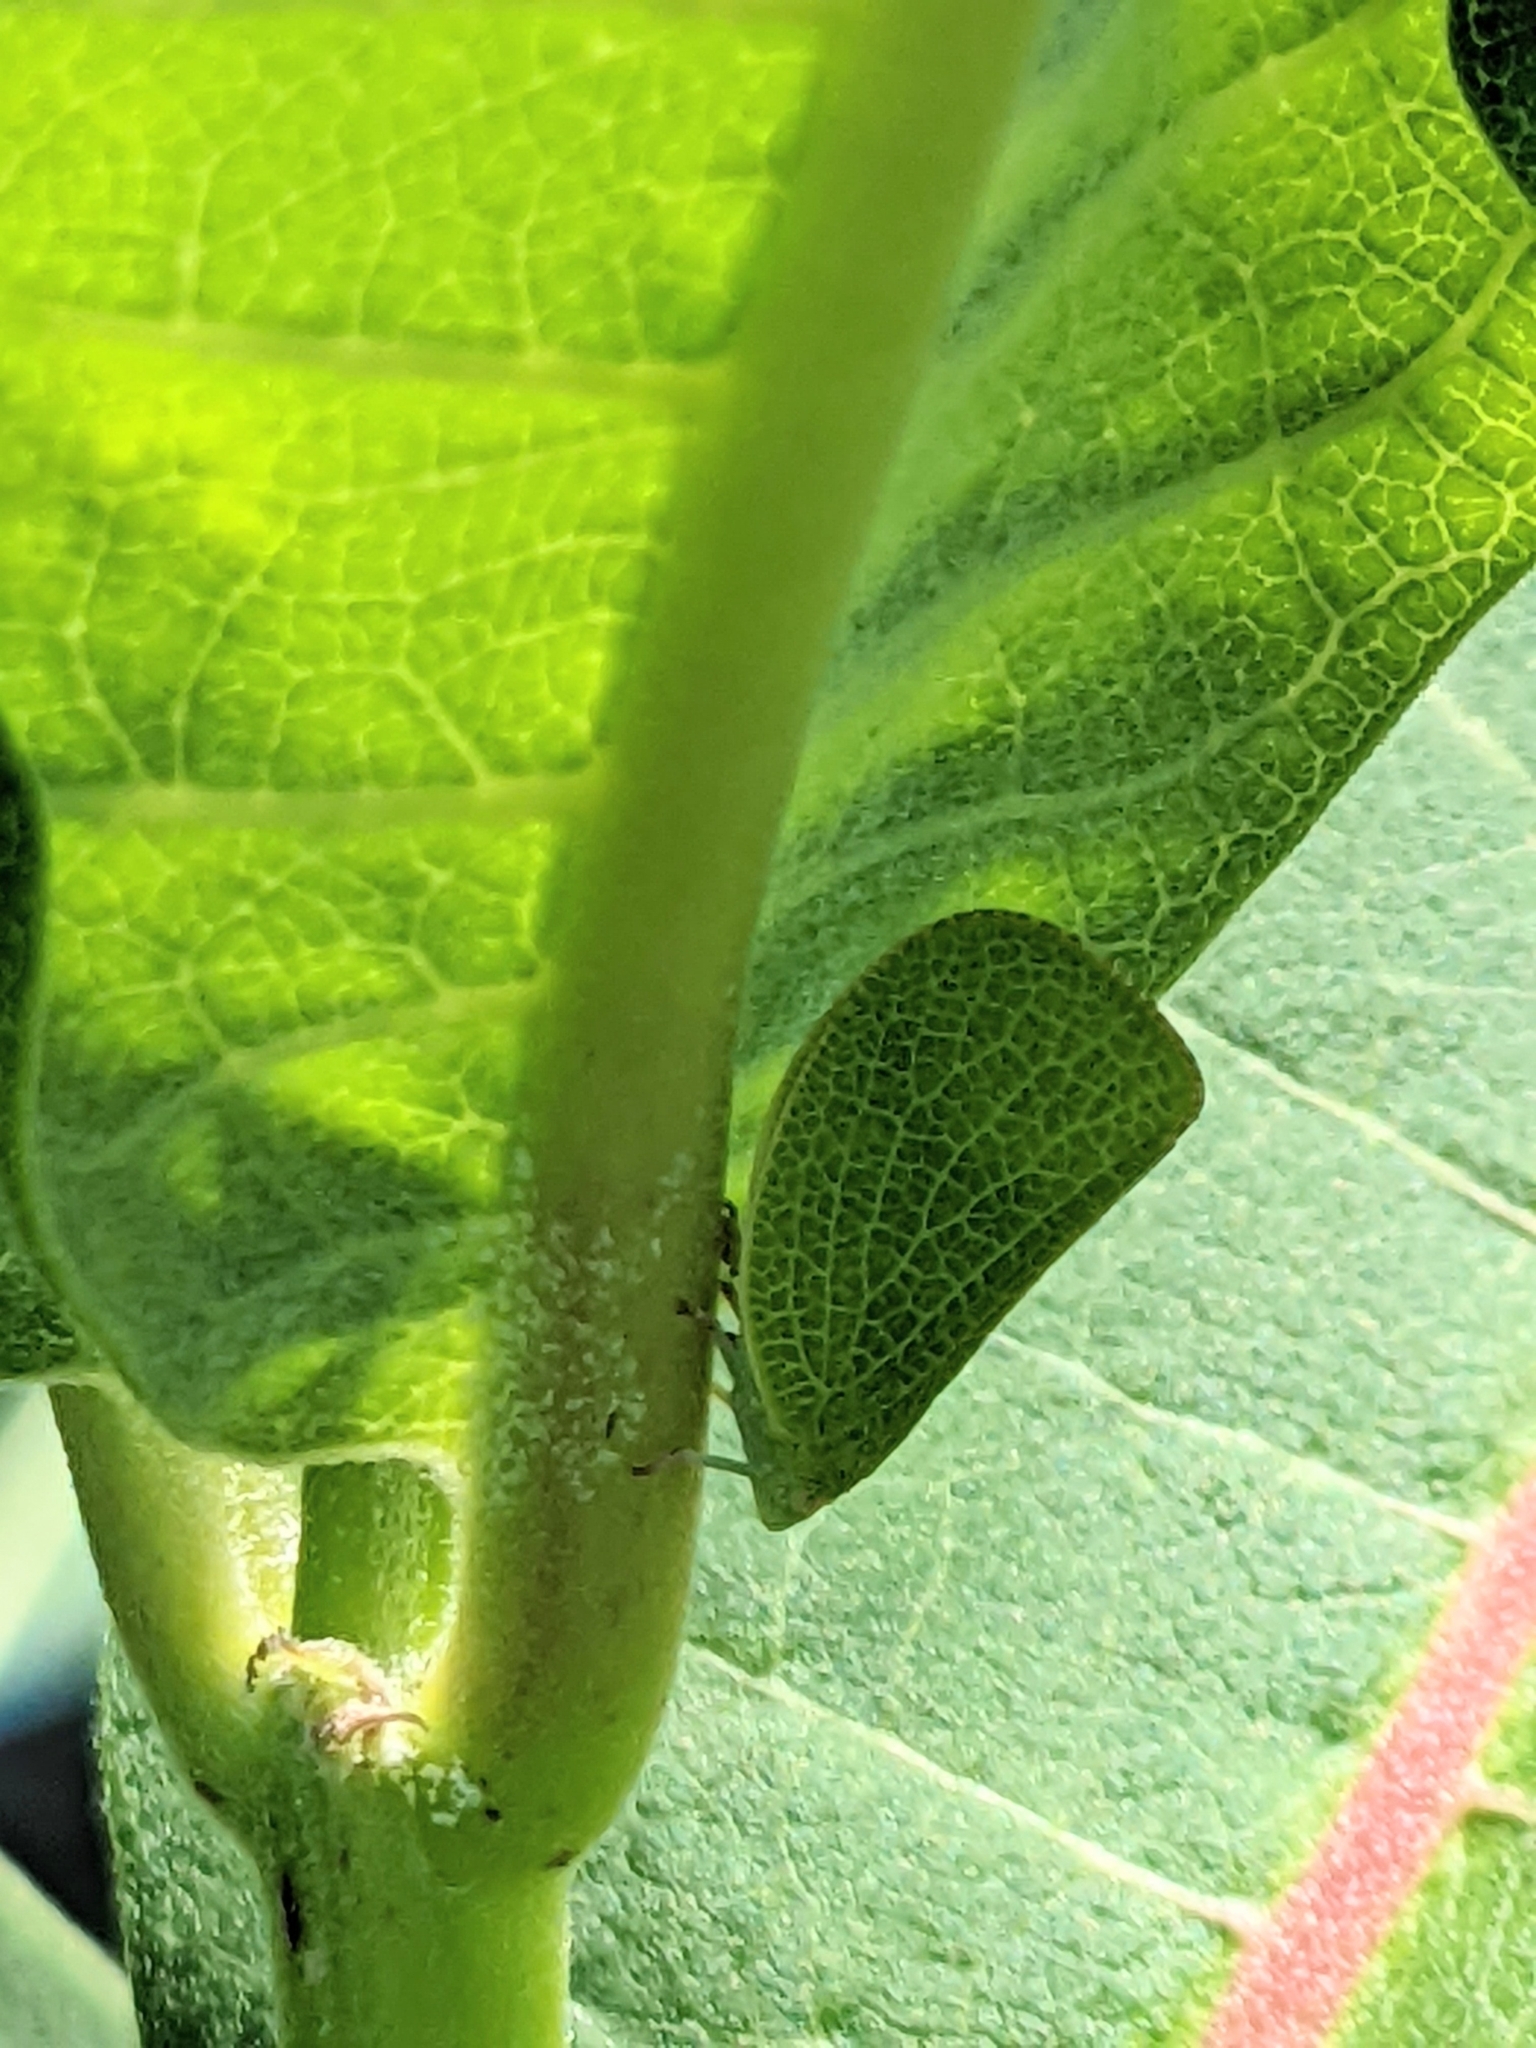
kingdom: Animalia
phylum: Arthropoda
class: Insecta
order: Hemiptera
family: Acanaloniidae
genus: Acanalonia
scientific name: Acanalonia conica
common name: Green cone-headed planthopper
